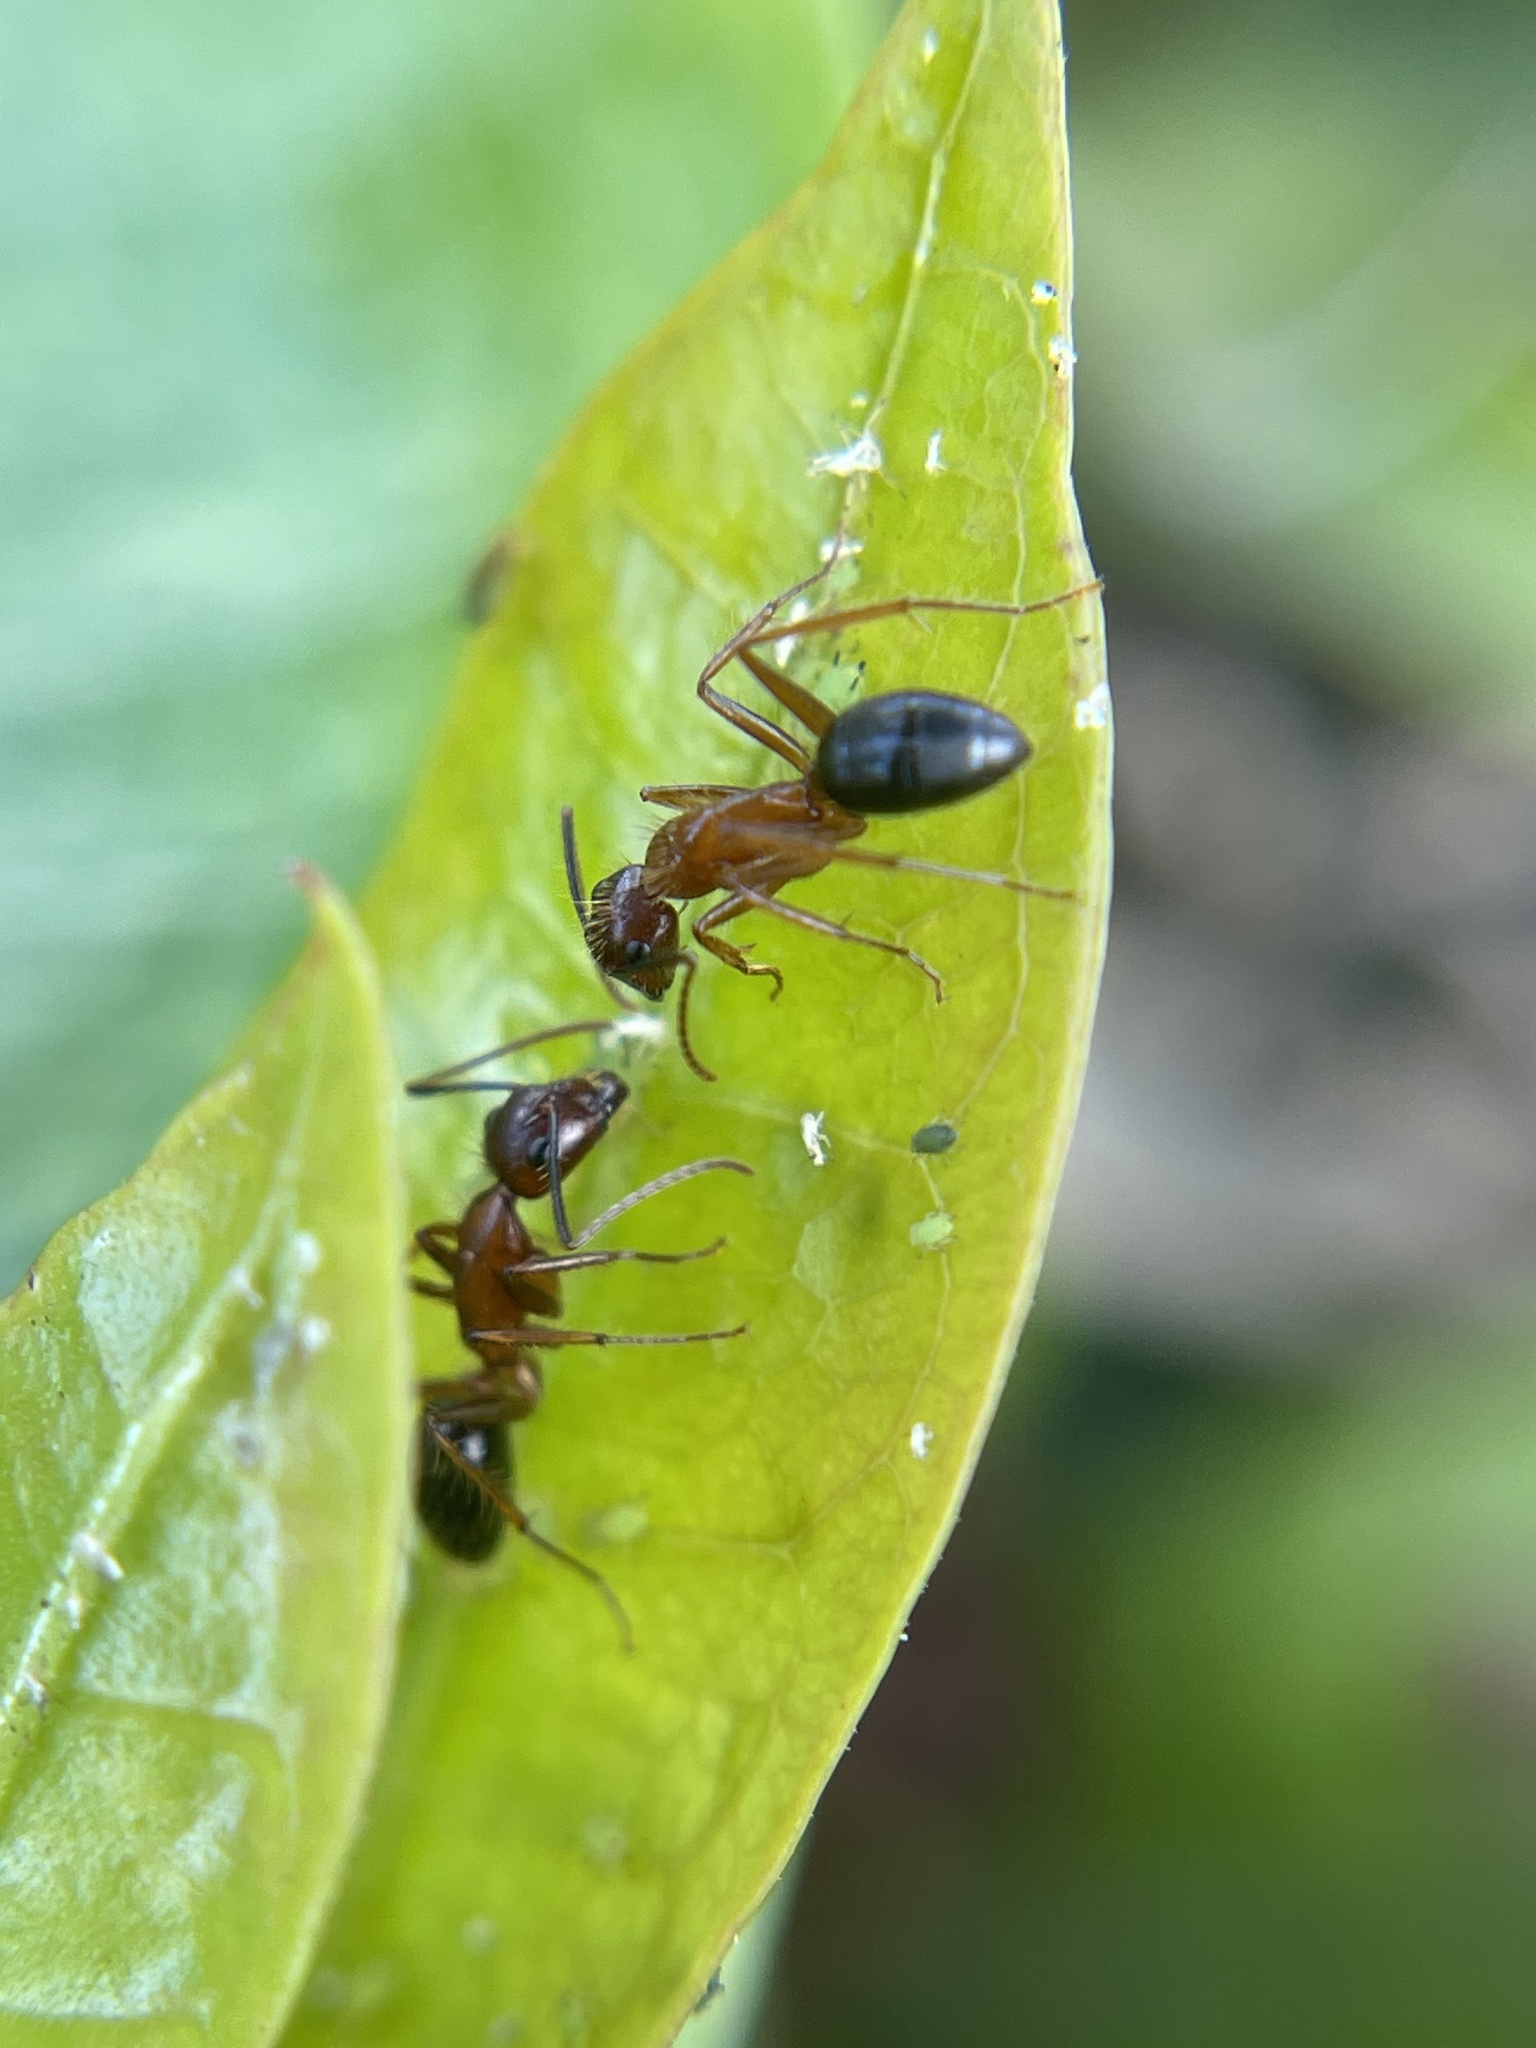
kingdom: Animalia
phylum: Arthropoda
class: Insecta
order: Hymenoptera
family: Formicidae
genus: Camponotus
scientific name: Camponotus floridanus
